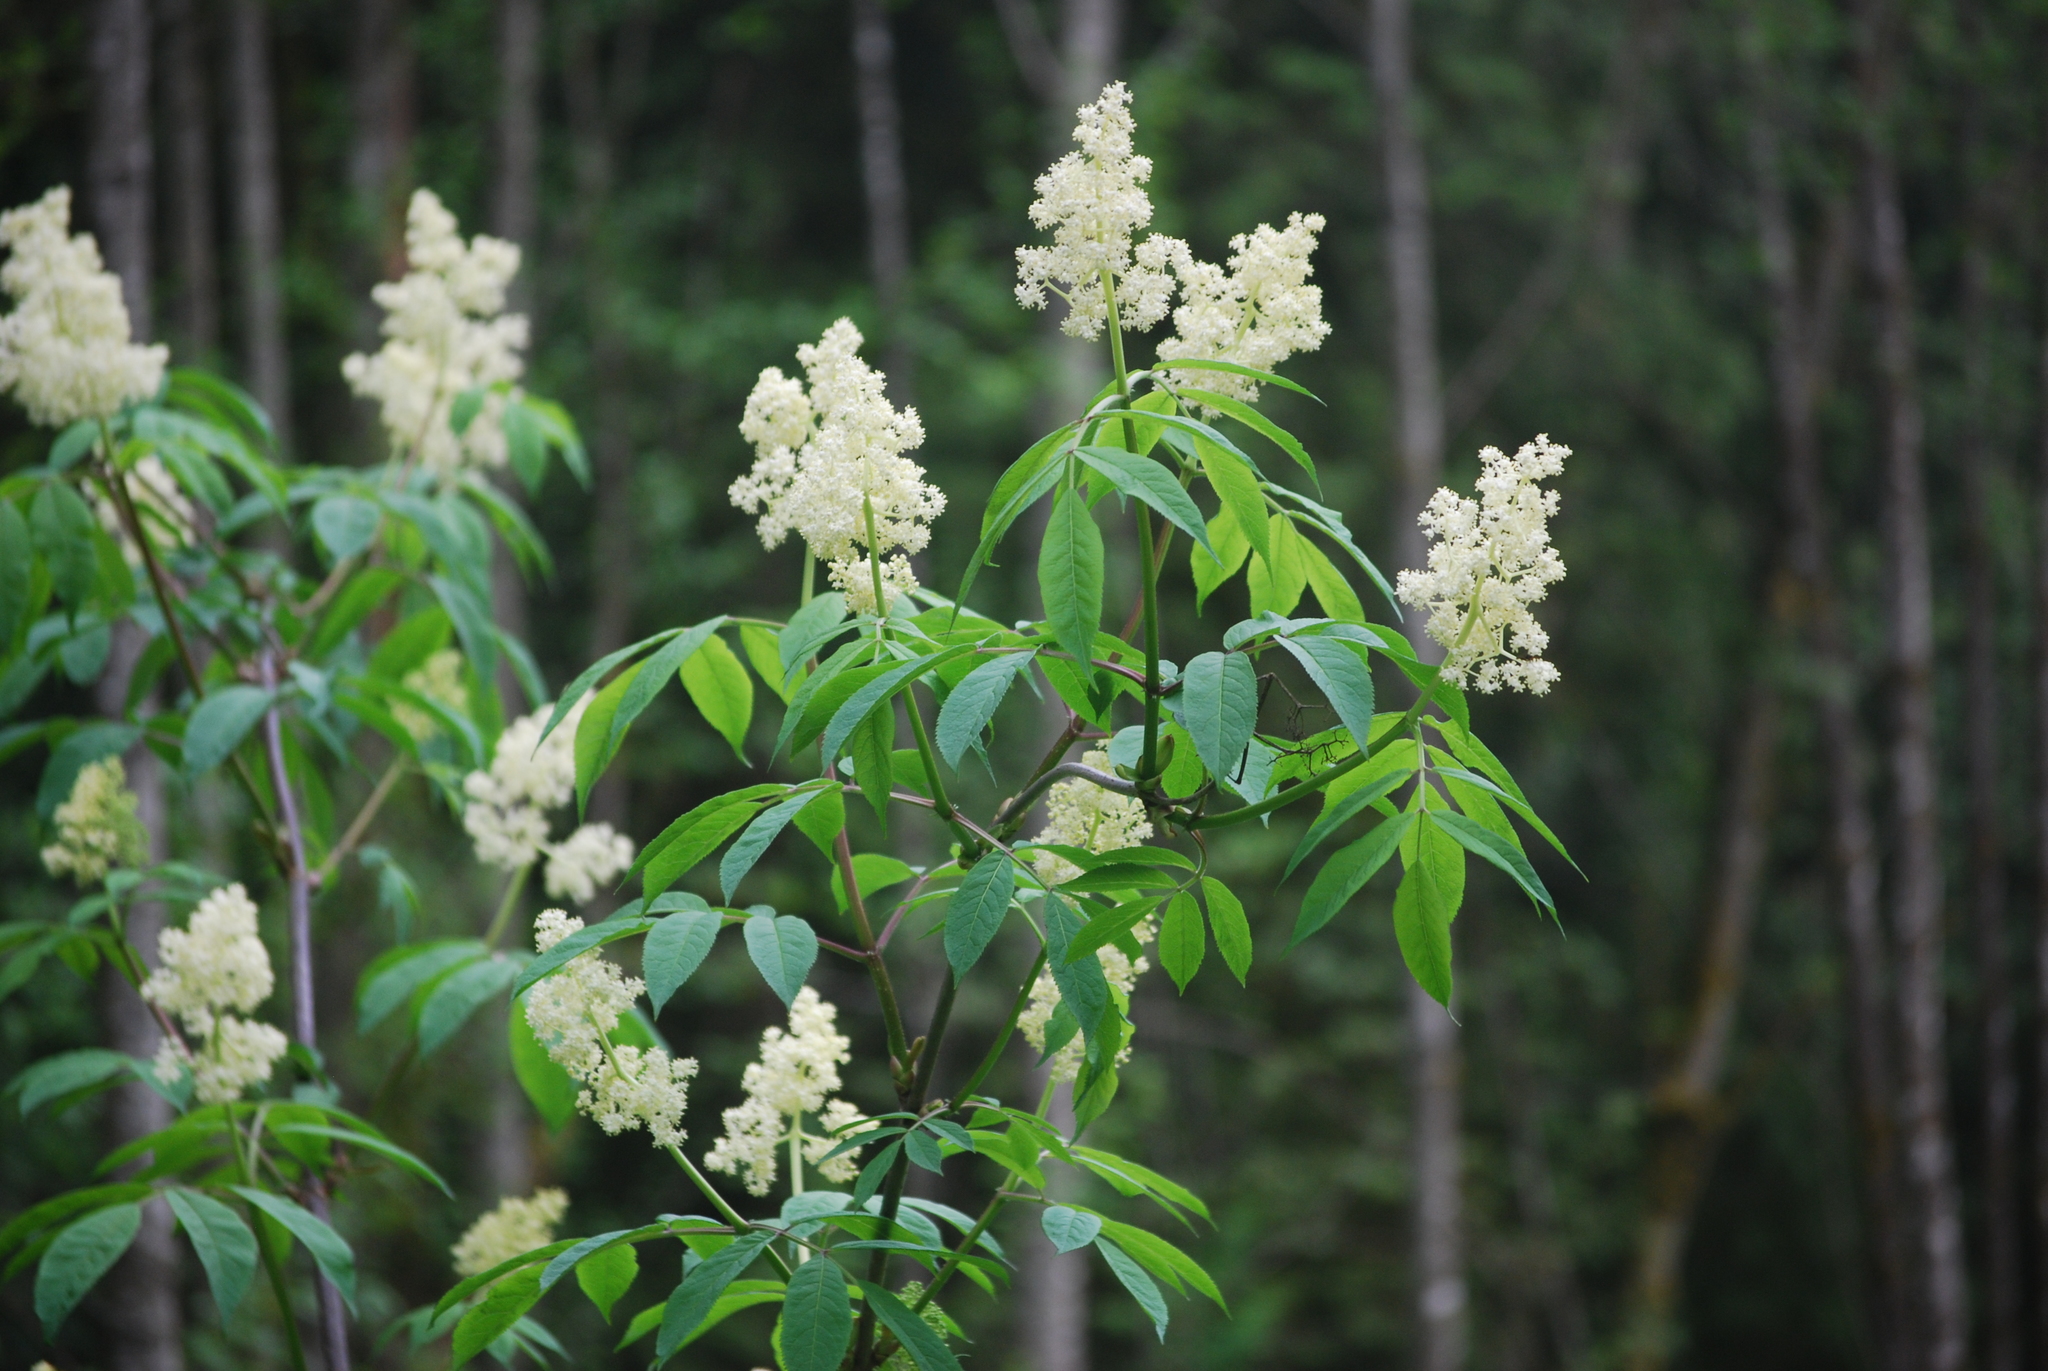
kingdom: Plantae
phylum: Tracheophyta
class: Magnoliopsida
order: Dipsacales
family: Viburnaceae
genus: Sambucus
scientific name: Sambucus racemosa
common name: Red-berried elder
